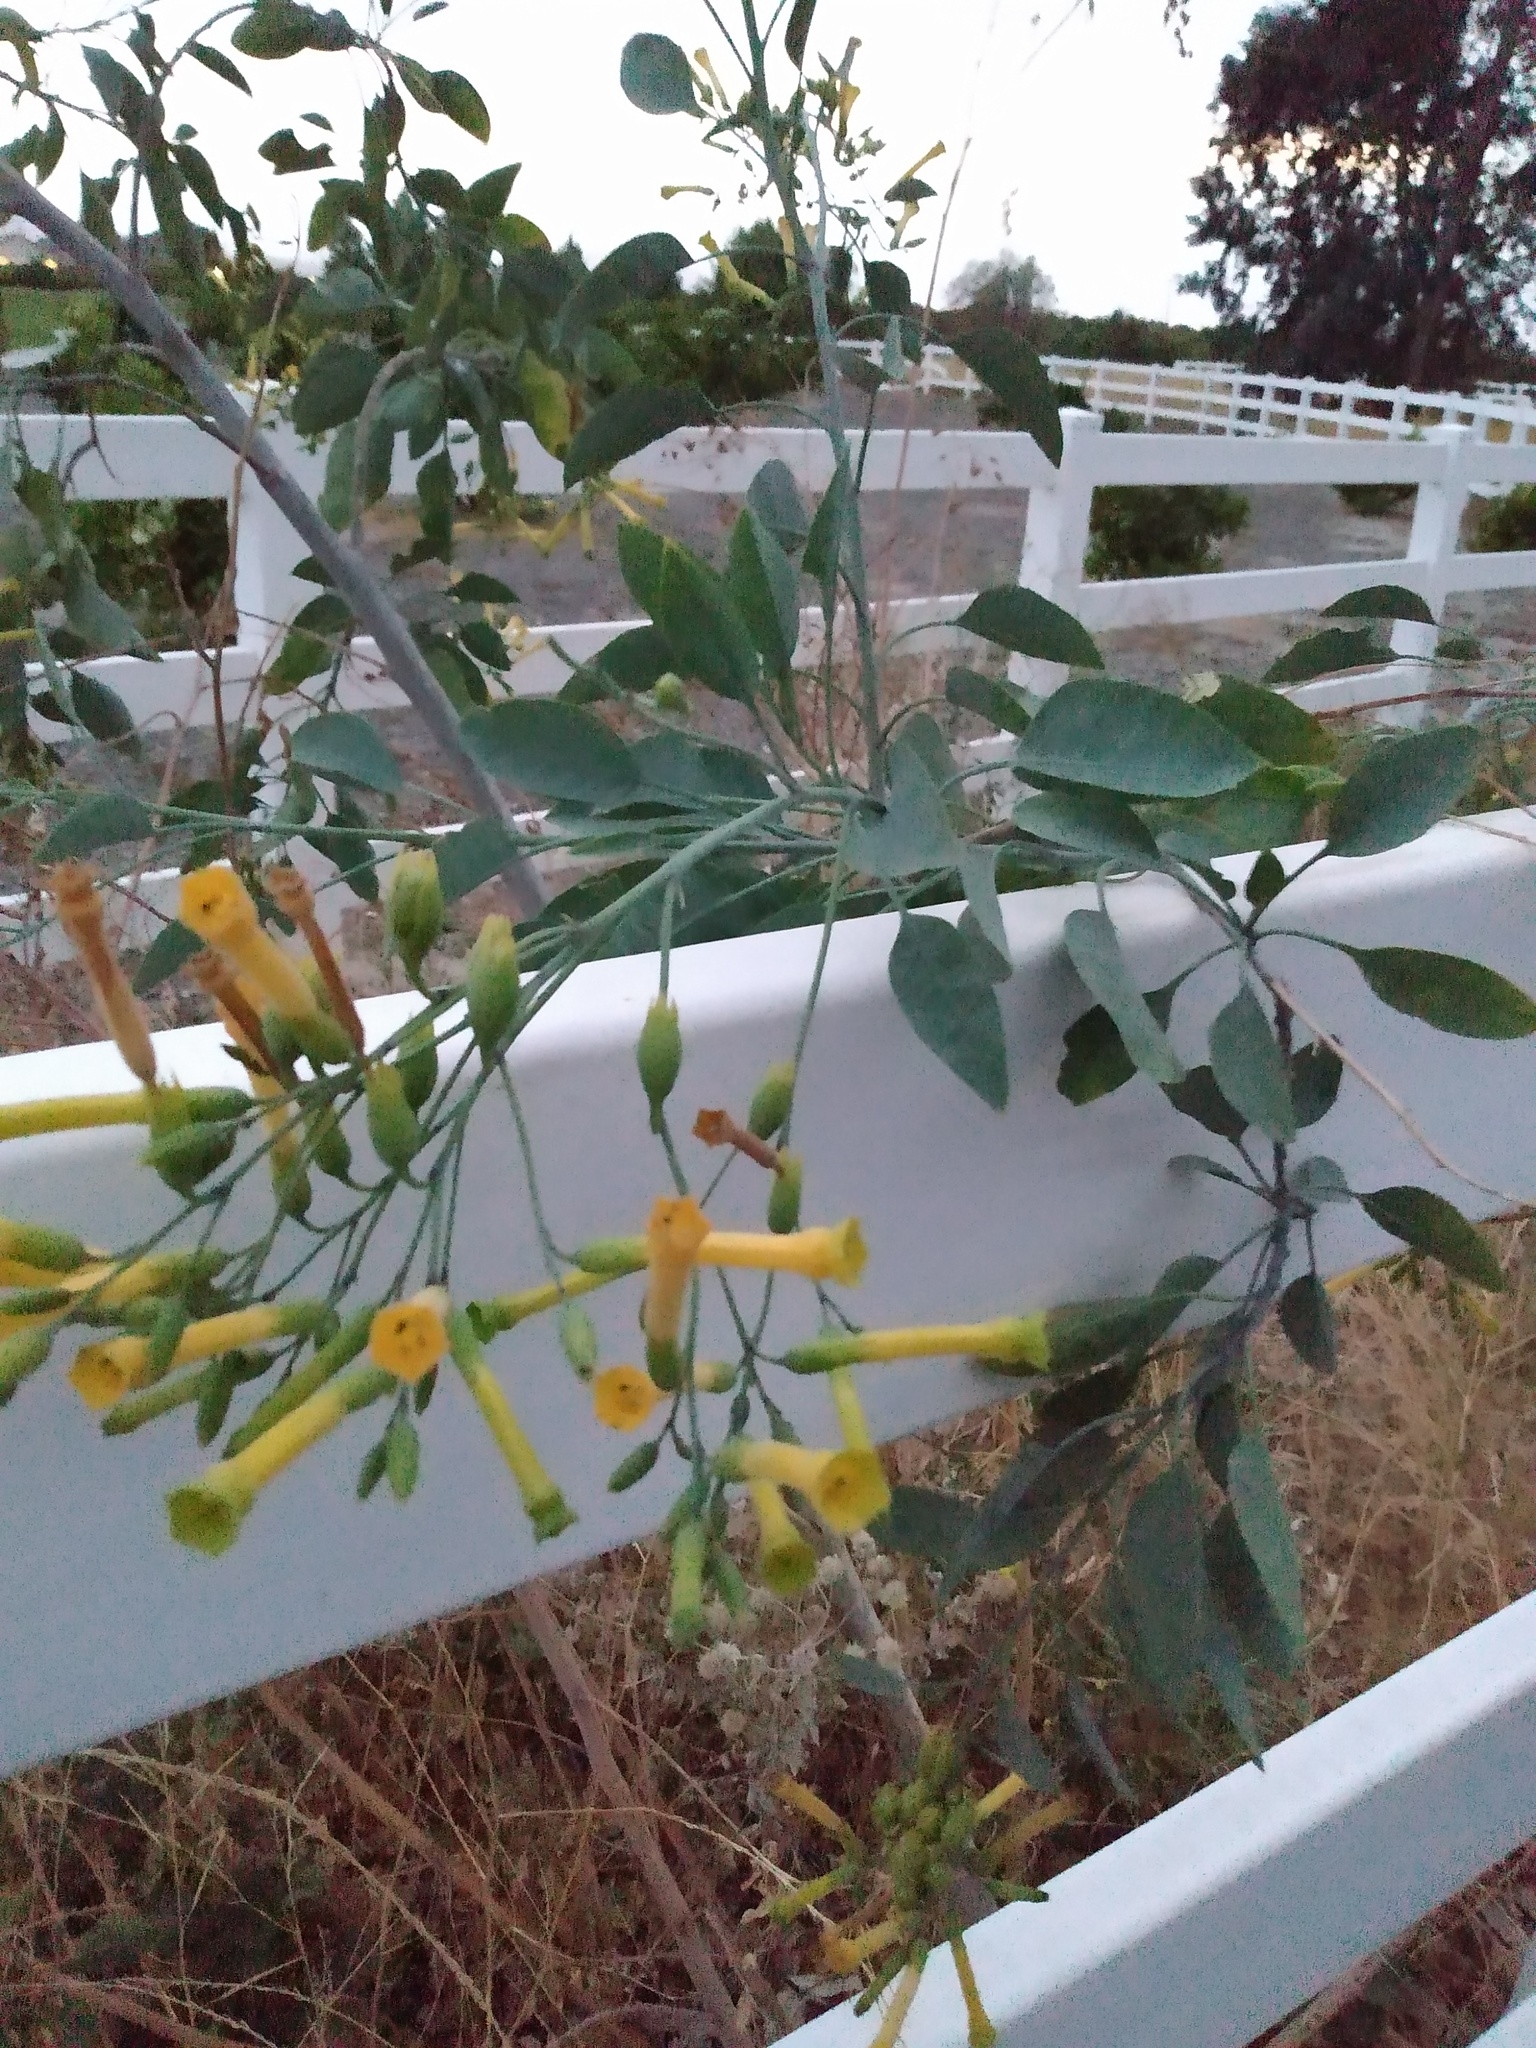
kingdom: Plantae
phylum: Tracheophyta
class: Magnoliopsida
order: Solanales
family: Solanaceae
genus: Nicotiana
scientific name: Nicotiana glauca
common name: Tree tobacco
